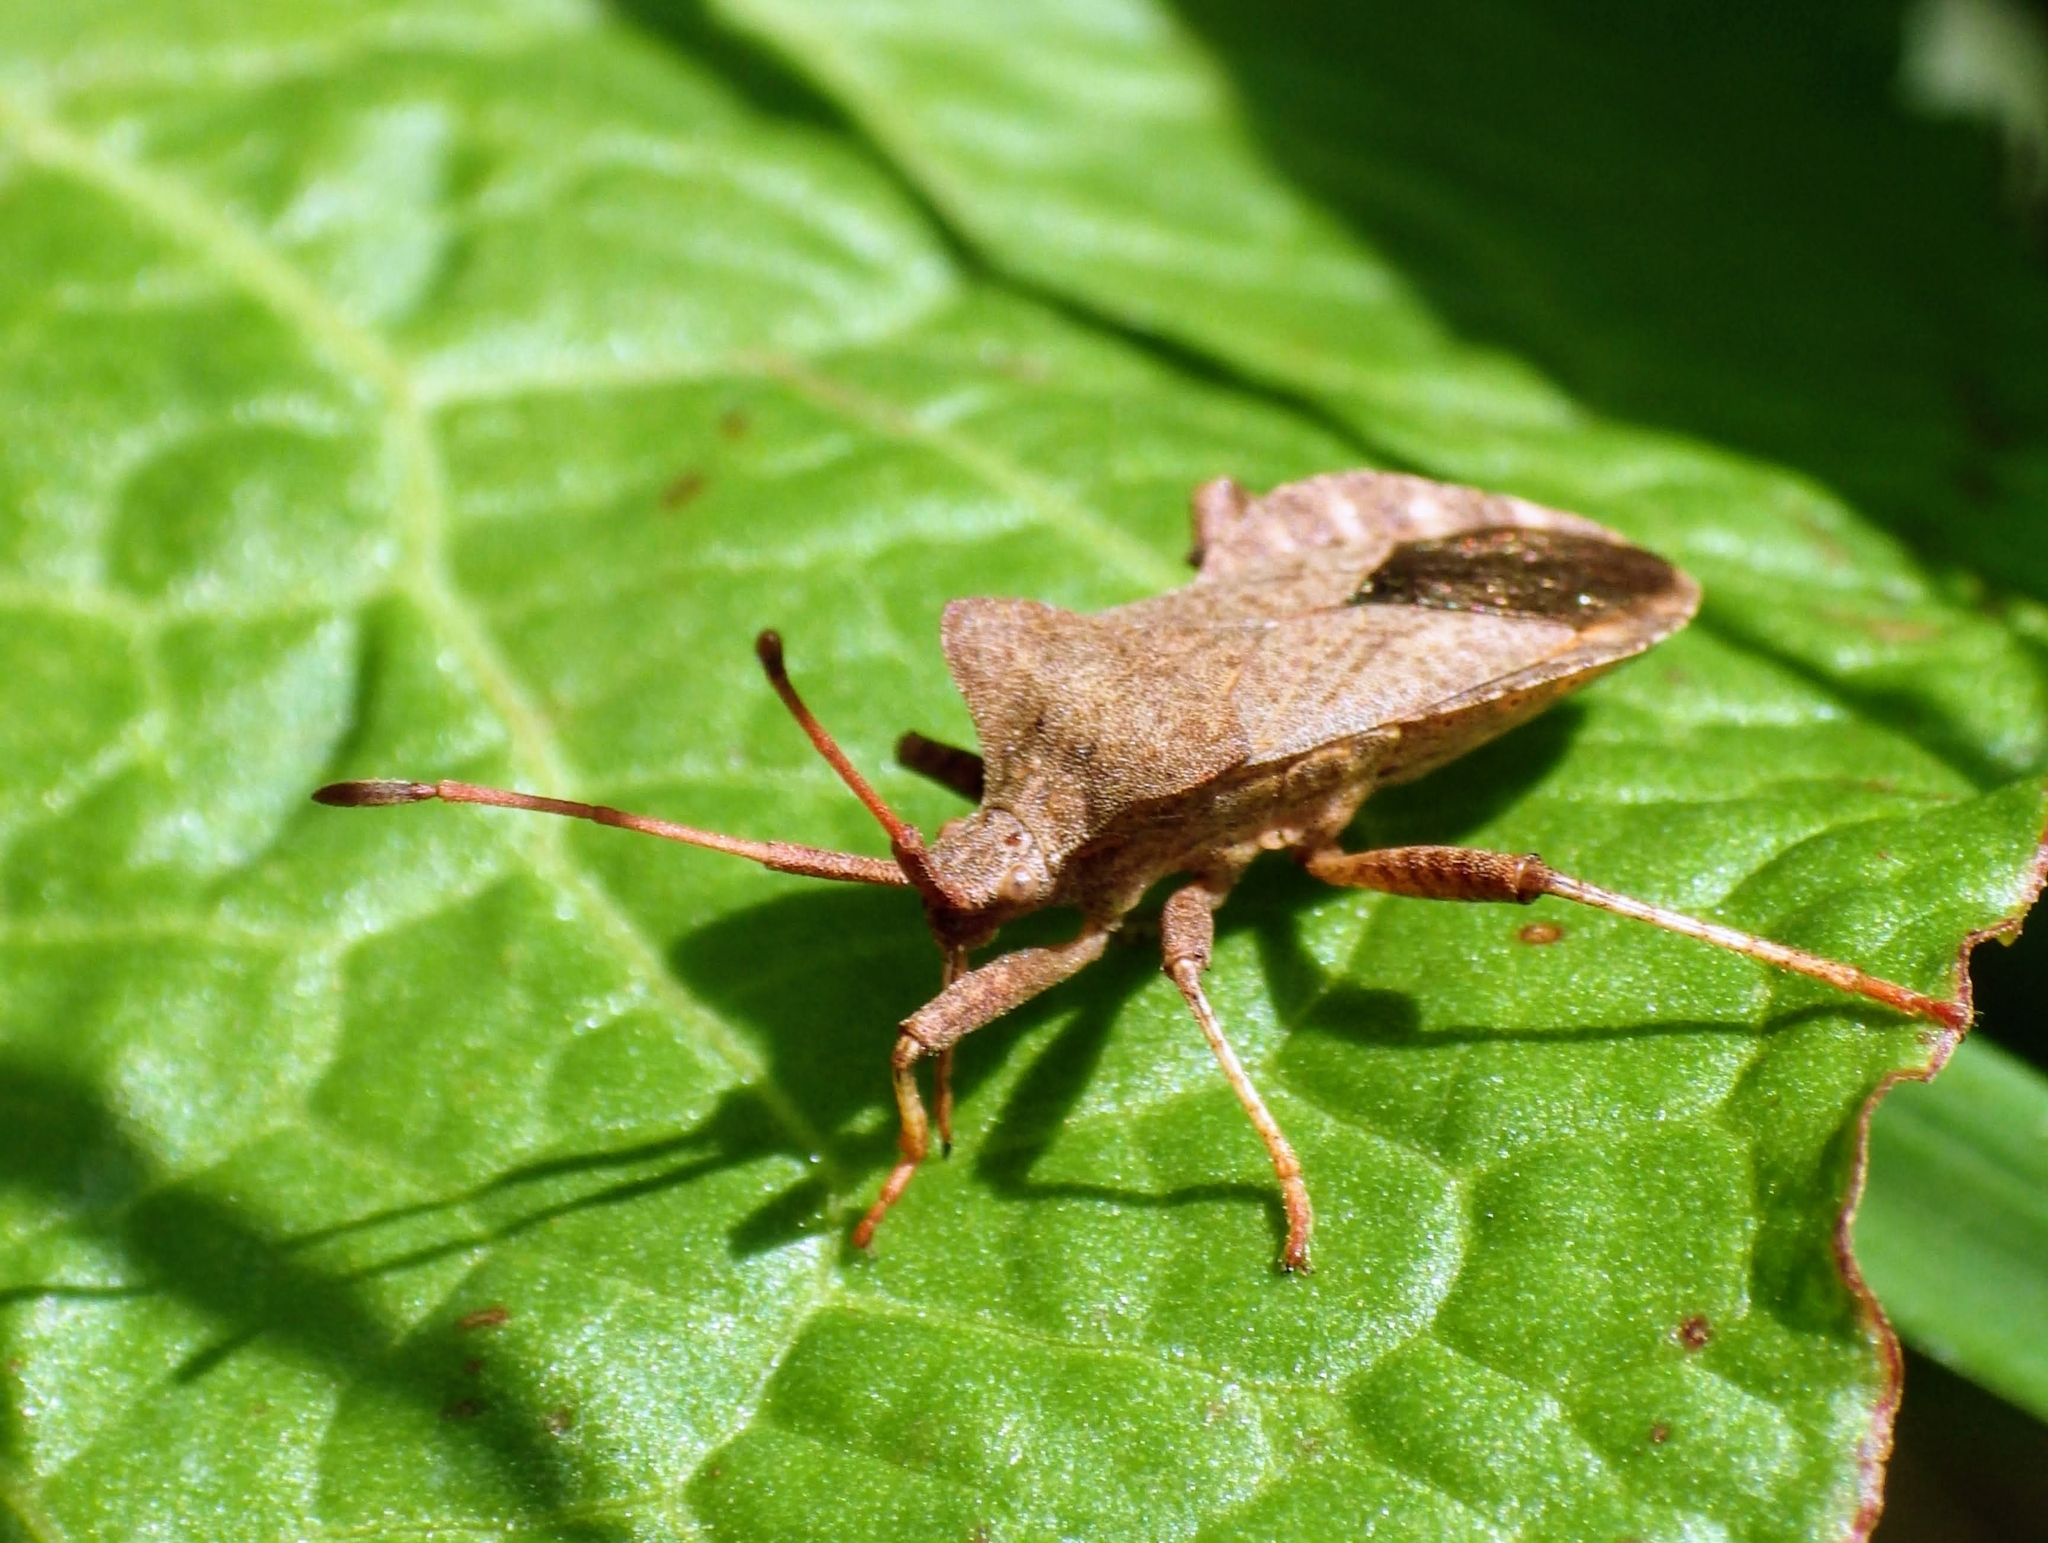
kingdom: Animalia
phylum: Arthropoda
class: Insecta
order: Hemiptera
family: Coreidae
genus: Coreus
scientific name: Coreus marginatus
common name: Dock bug
